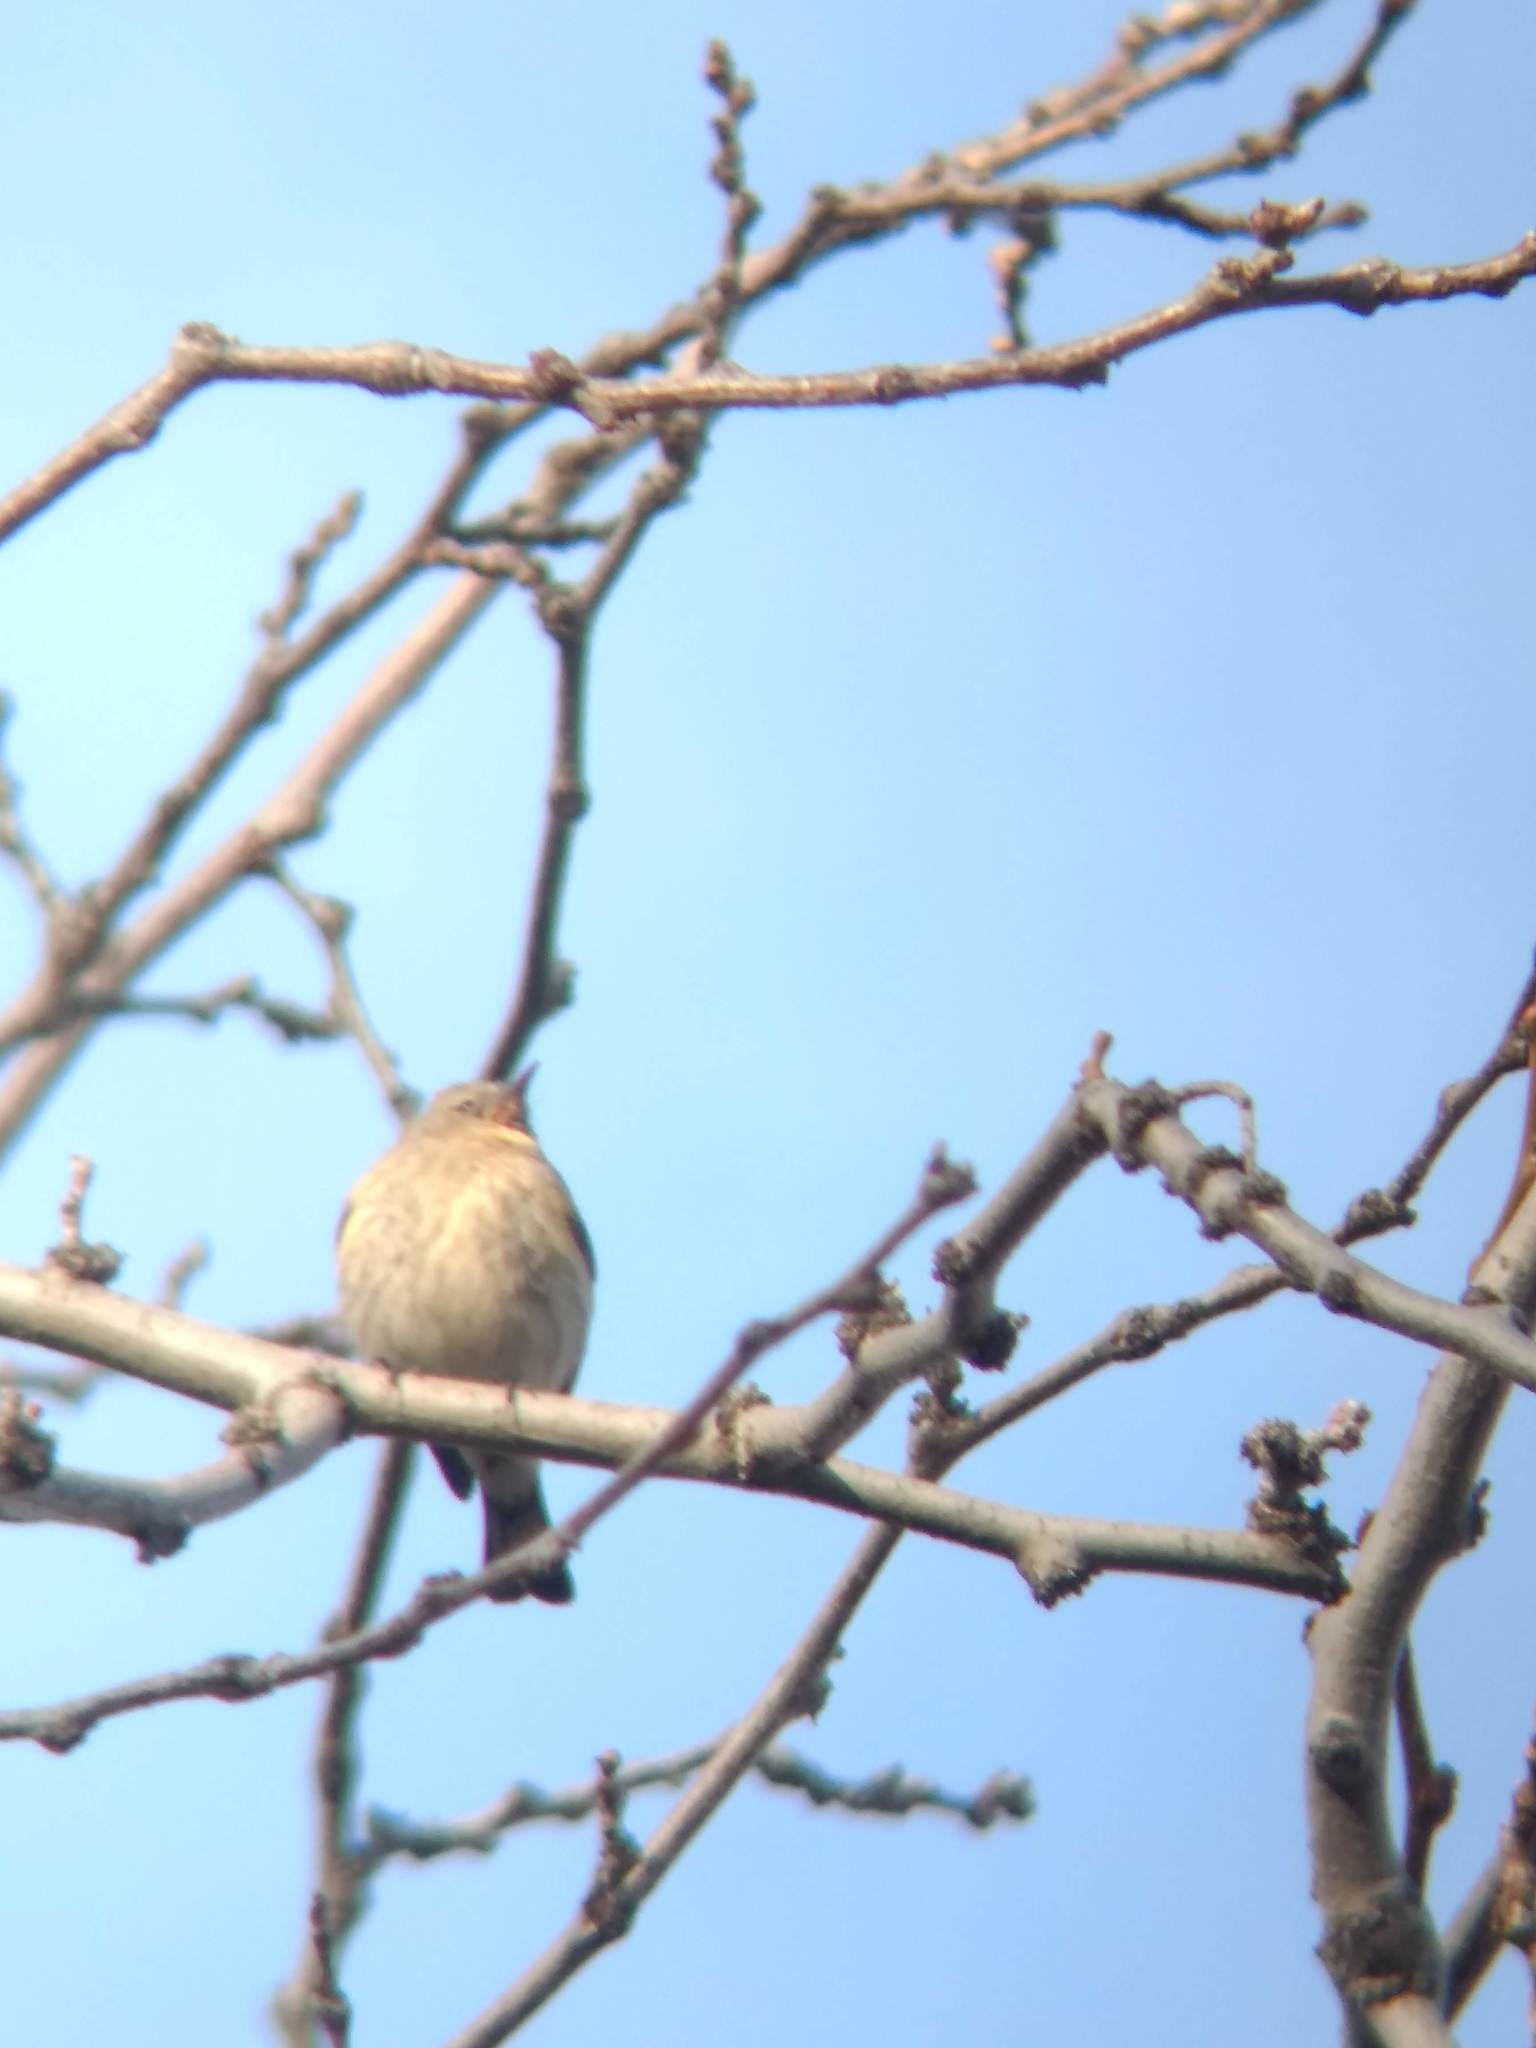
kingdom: Animalia
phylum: Chordata
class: Aves
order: Passeriformes
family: Parulidae
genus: Setophaga
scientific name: Setophaga coronata
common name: Myrtle warbler
